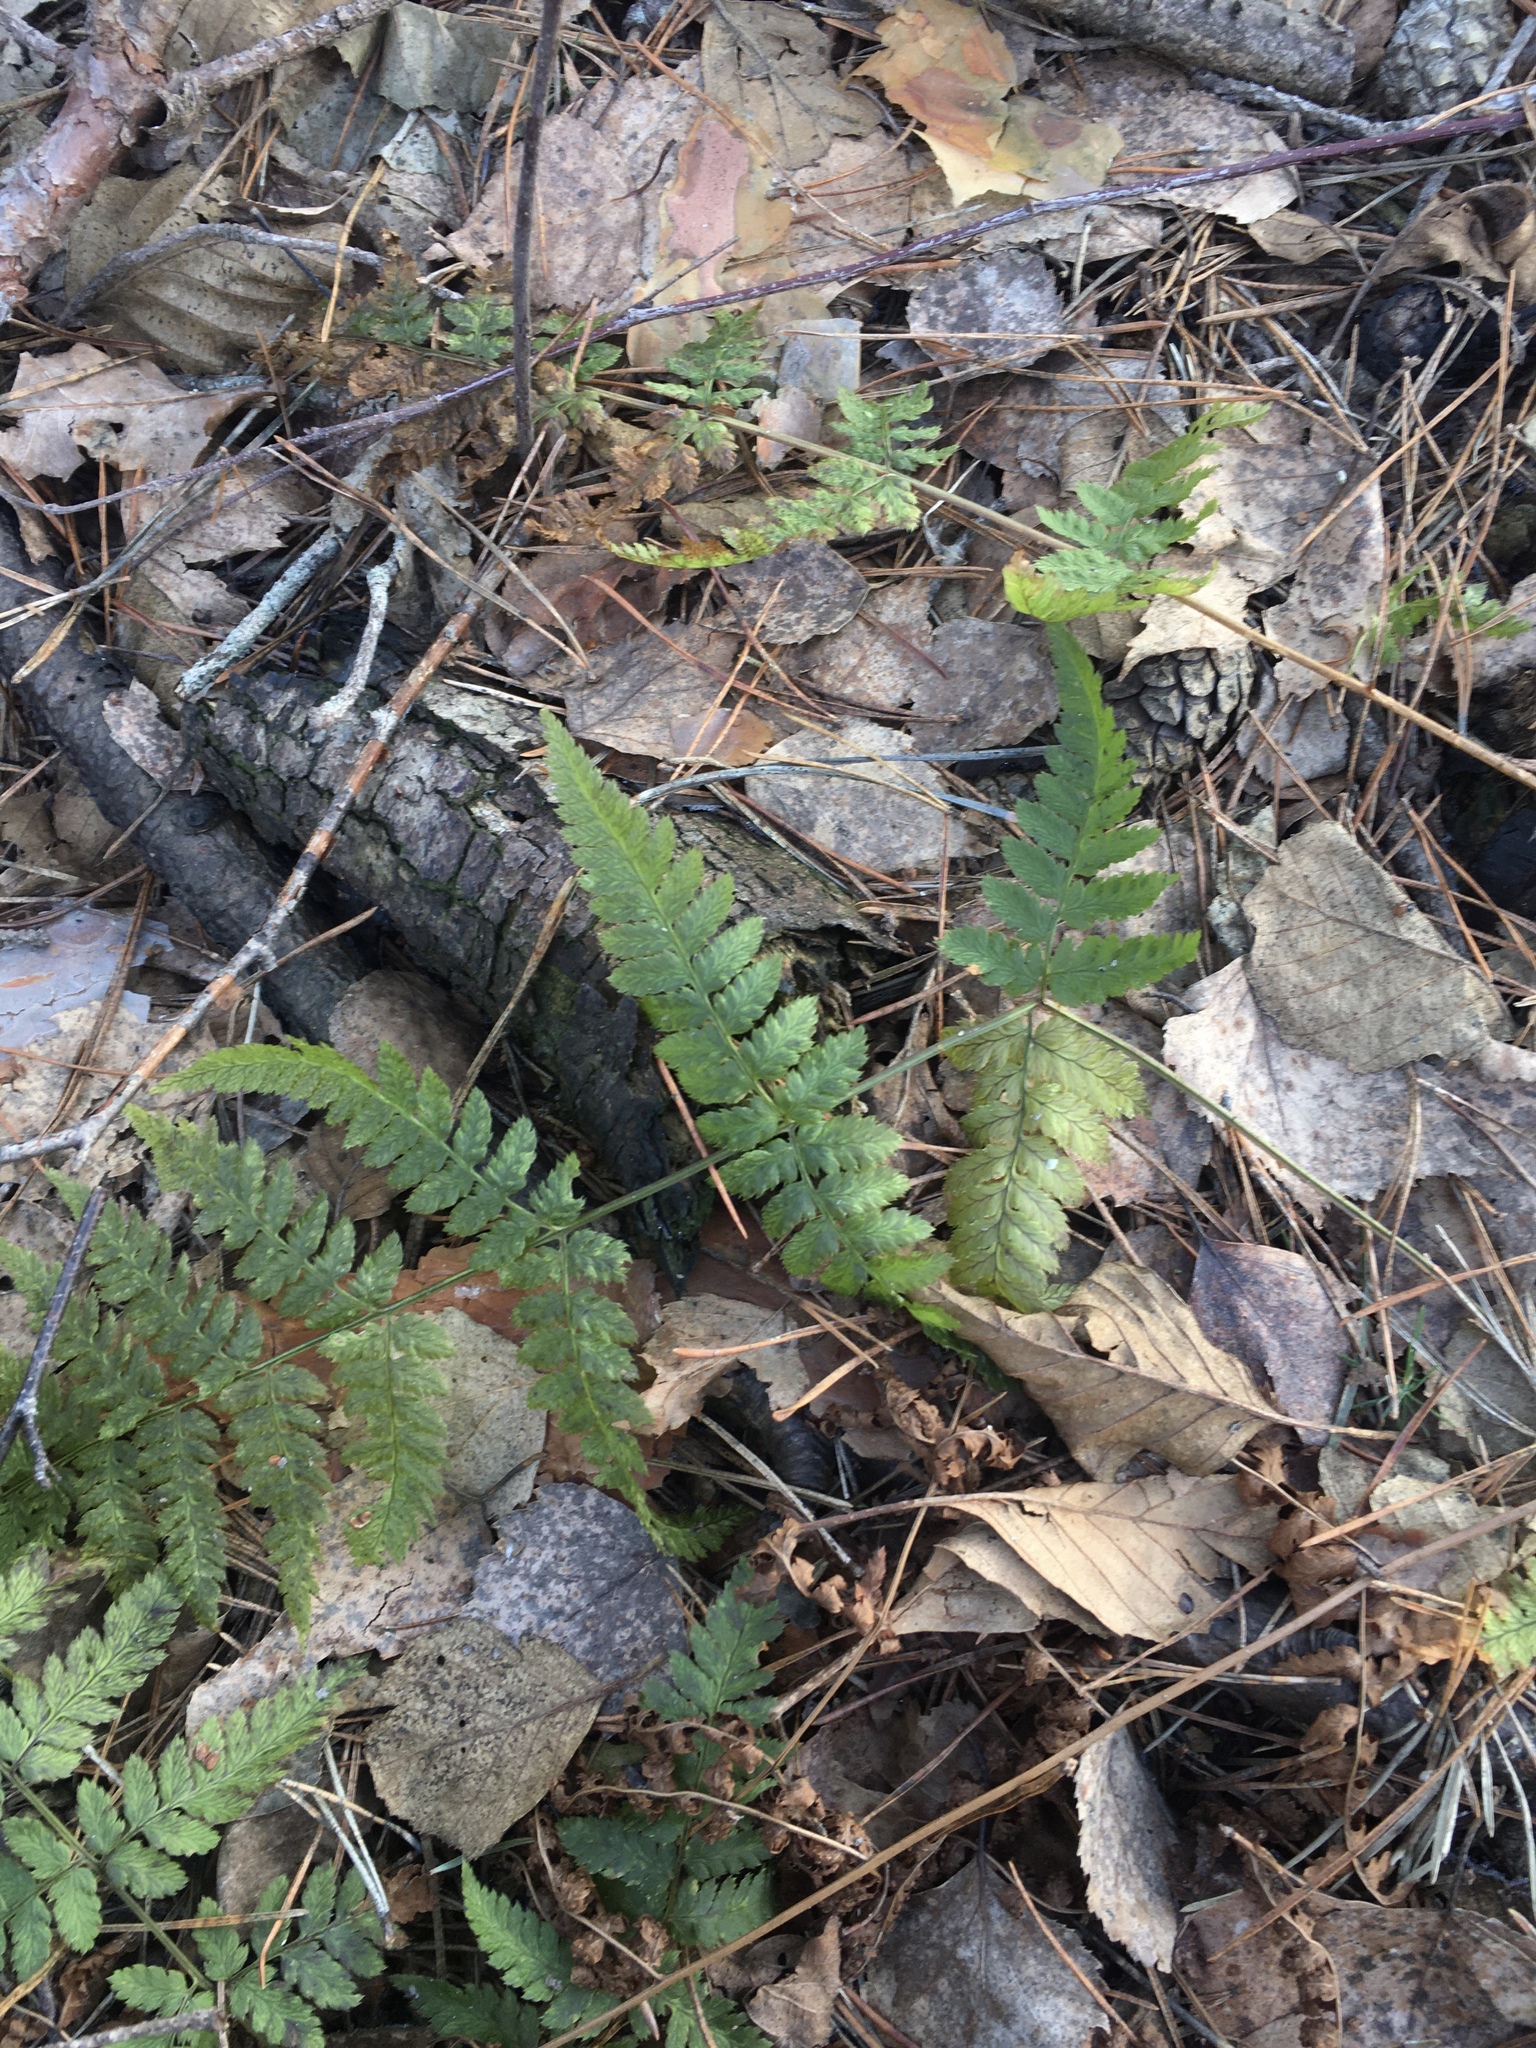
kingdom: Plantae
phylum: Tracheophyta
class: Polypodiopsida
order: Polypodiales
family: Dryopteridaceae
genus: Dryopteris
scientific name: Dryopteris carthusiana
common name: Narrow buckler-fern
